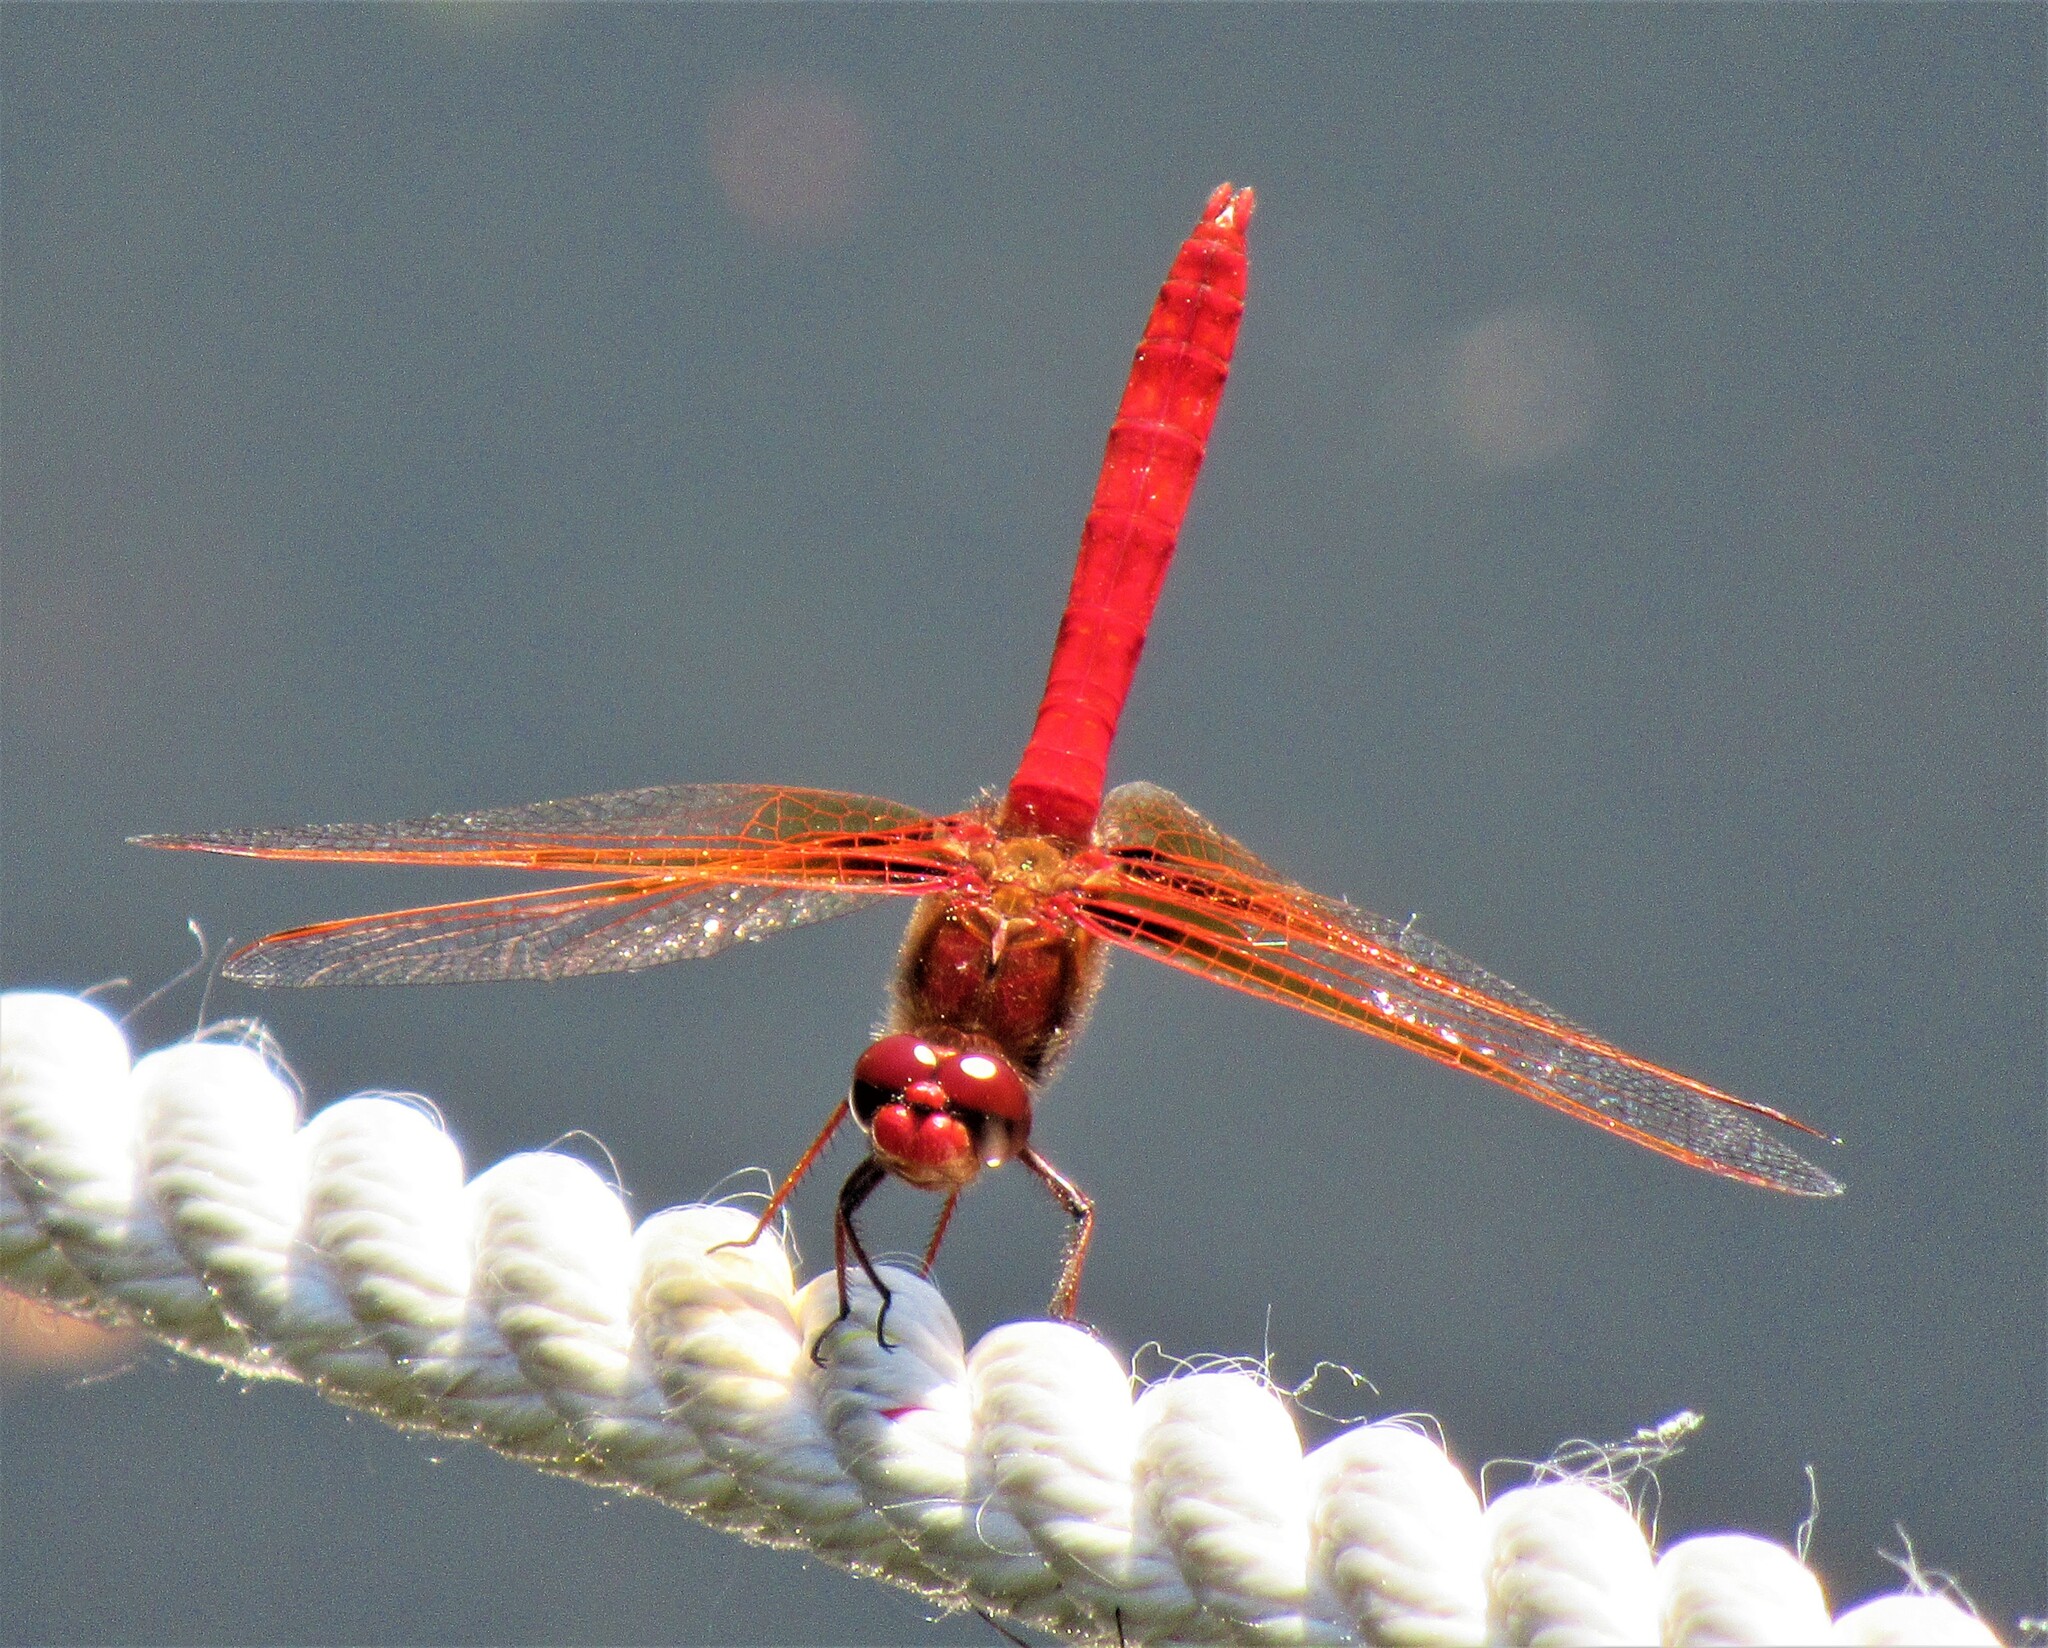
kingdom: Animalia
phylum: Arthropoda
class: Insecta
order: Odonata
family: Libellulidae
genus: Sympetrum
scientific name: Sympetrum illotum
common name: Cardinal meadowhawk
